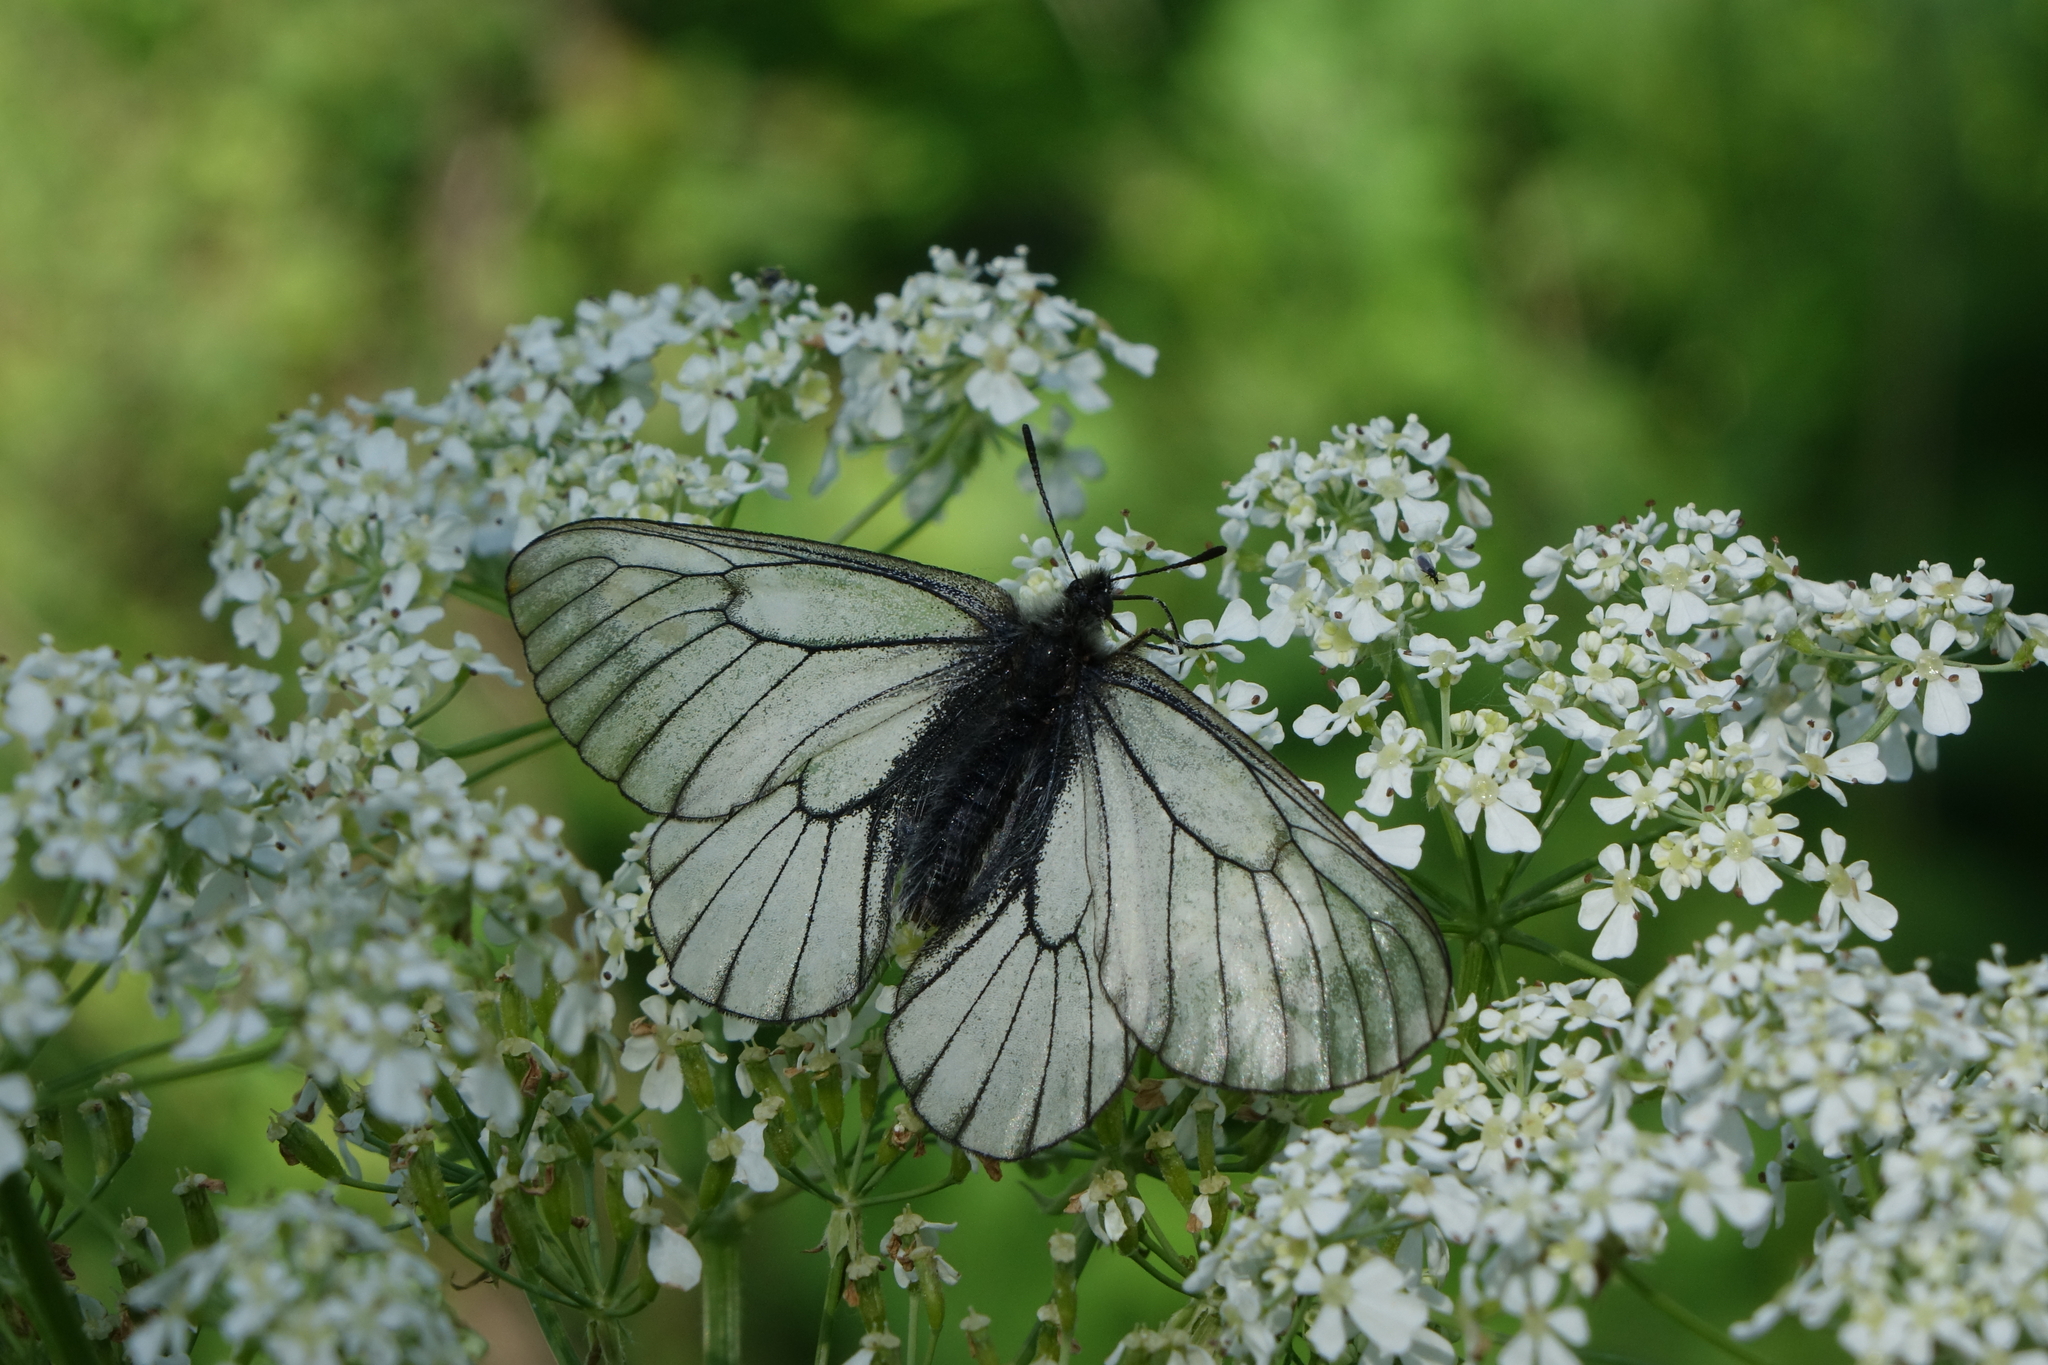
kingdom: Animalia
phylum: Arthropoda
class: Insecta
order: Lepidoptera
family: Papilionidae
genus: Parnassius
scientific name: Parnassius stubbendorfii
